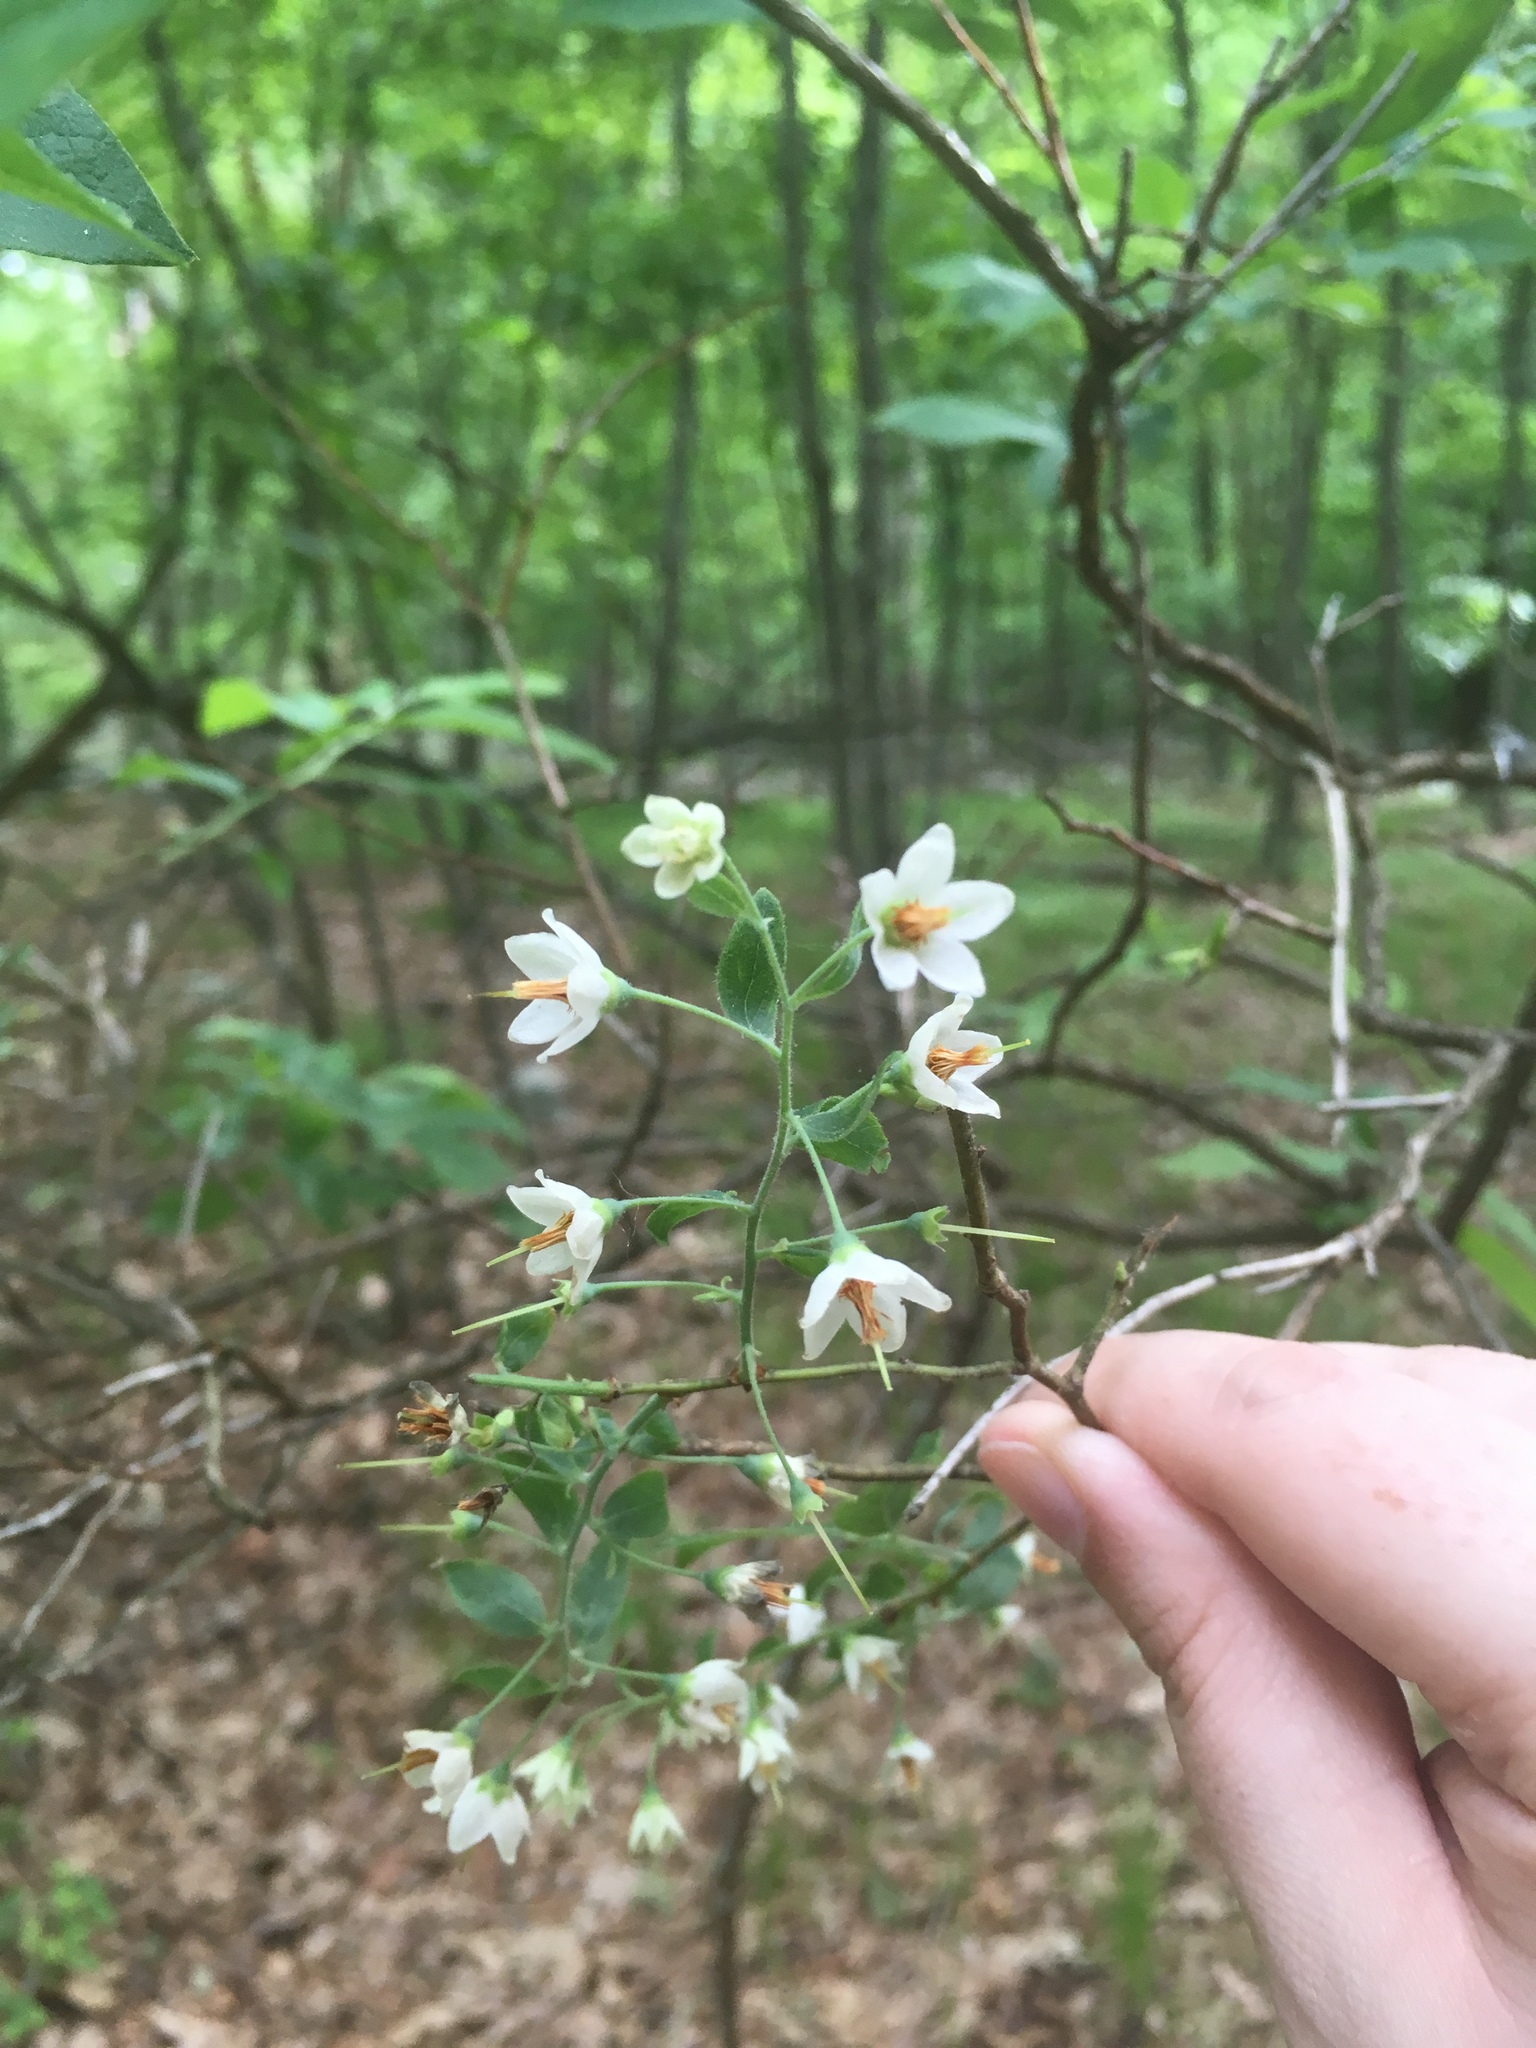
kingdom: Plantae
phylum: Tracheophyta
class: Magnoliopsida
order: Ericales
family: Ericaceae
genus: Vaccinium
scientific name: Vaccinium stamineum
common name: Deerberry
